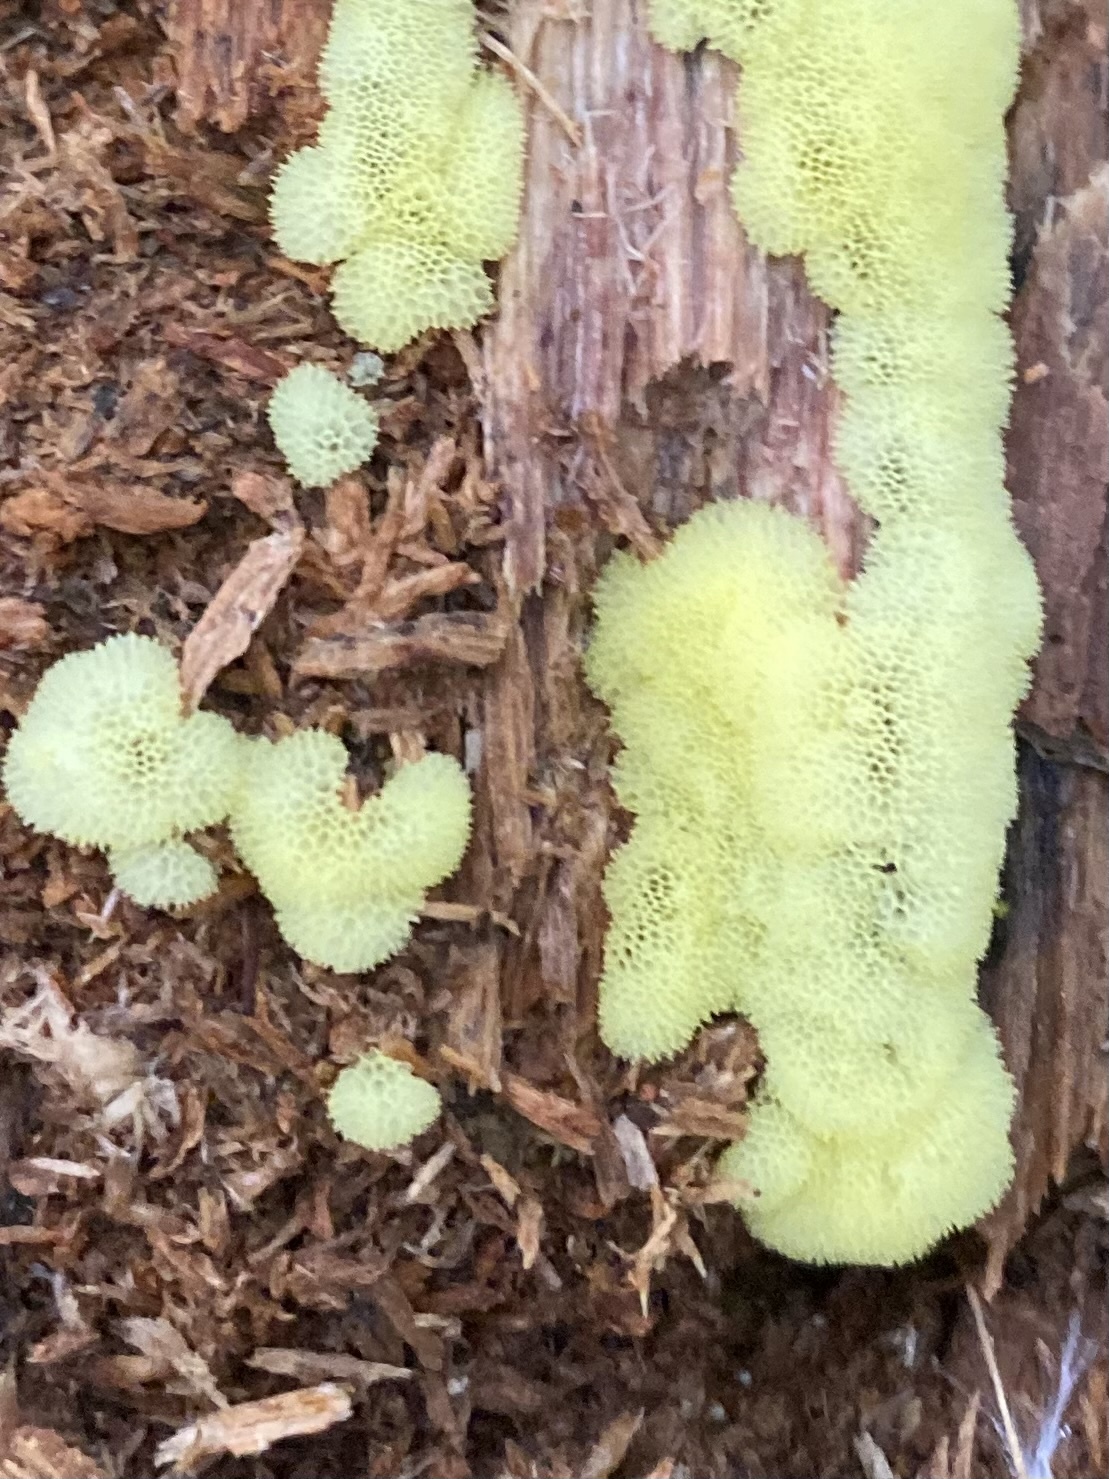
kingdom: Protozoa
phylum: Mycetozoa
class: Protosteliomycetes
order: Ceratiomyxales
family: Ceratiomyxaceae
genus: Ceratiomyxa
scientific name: Ceratiomyxa fruticulosa
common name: Honeycomb coral slime mold
